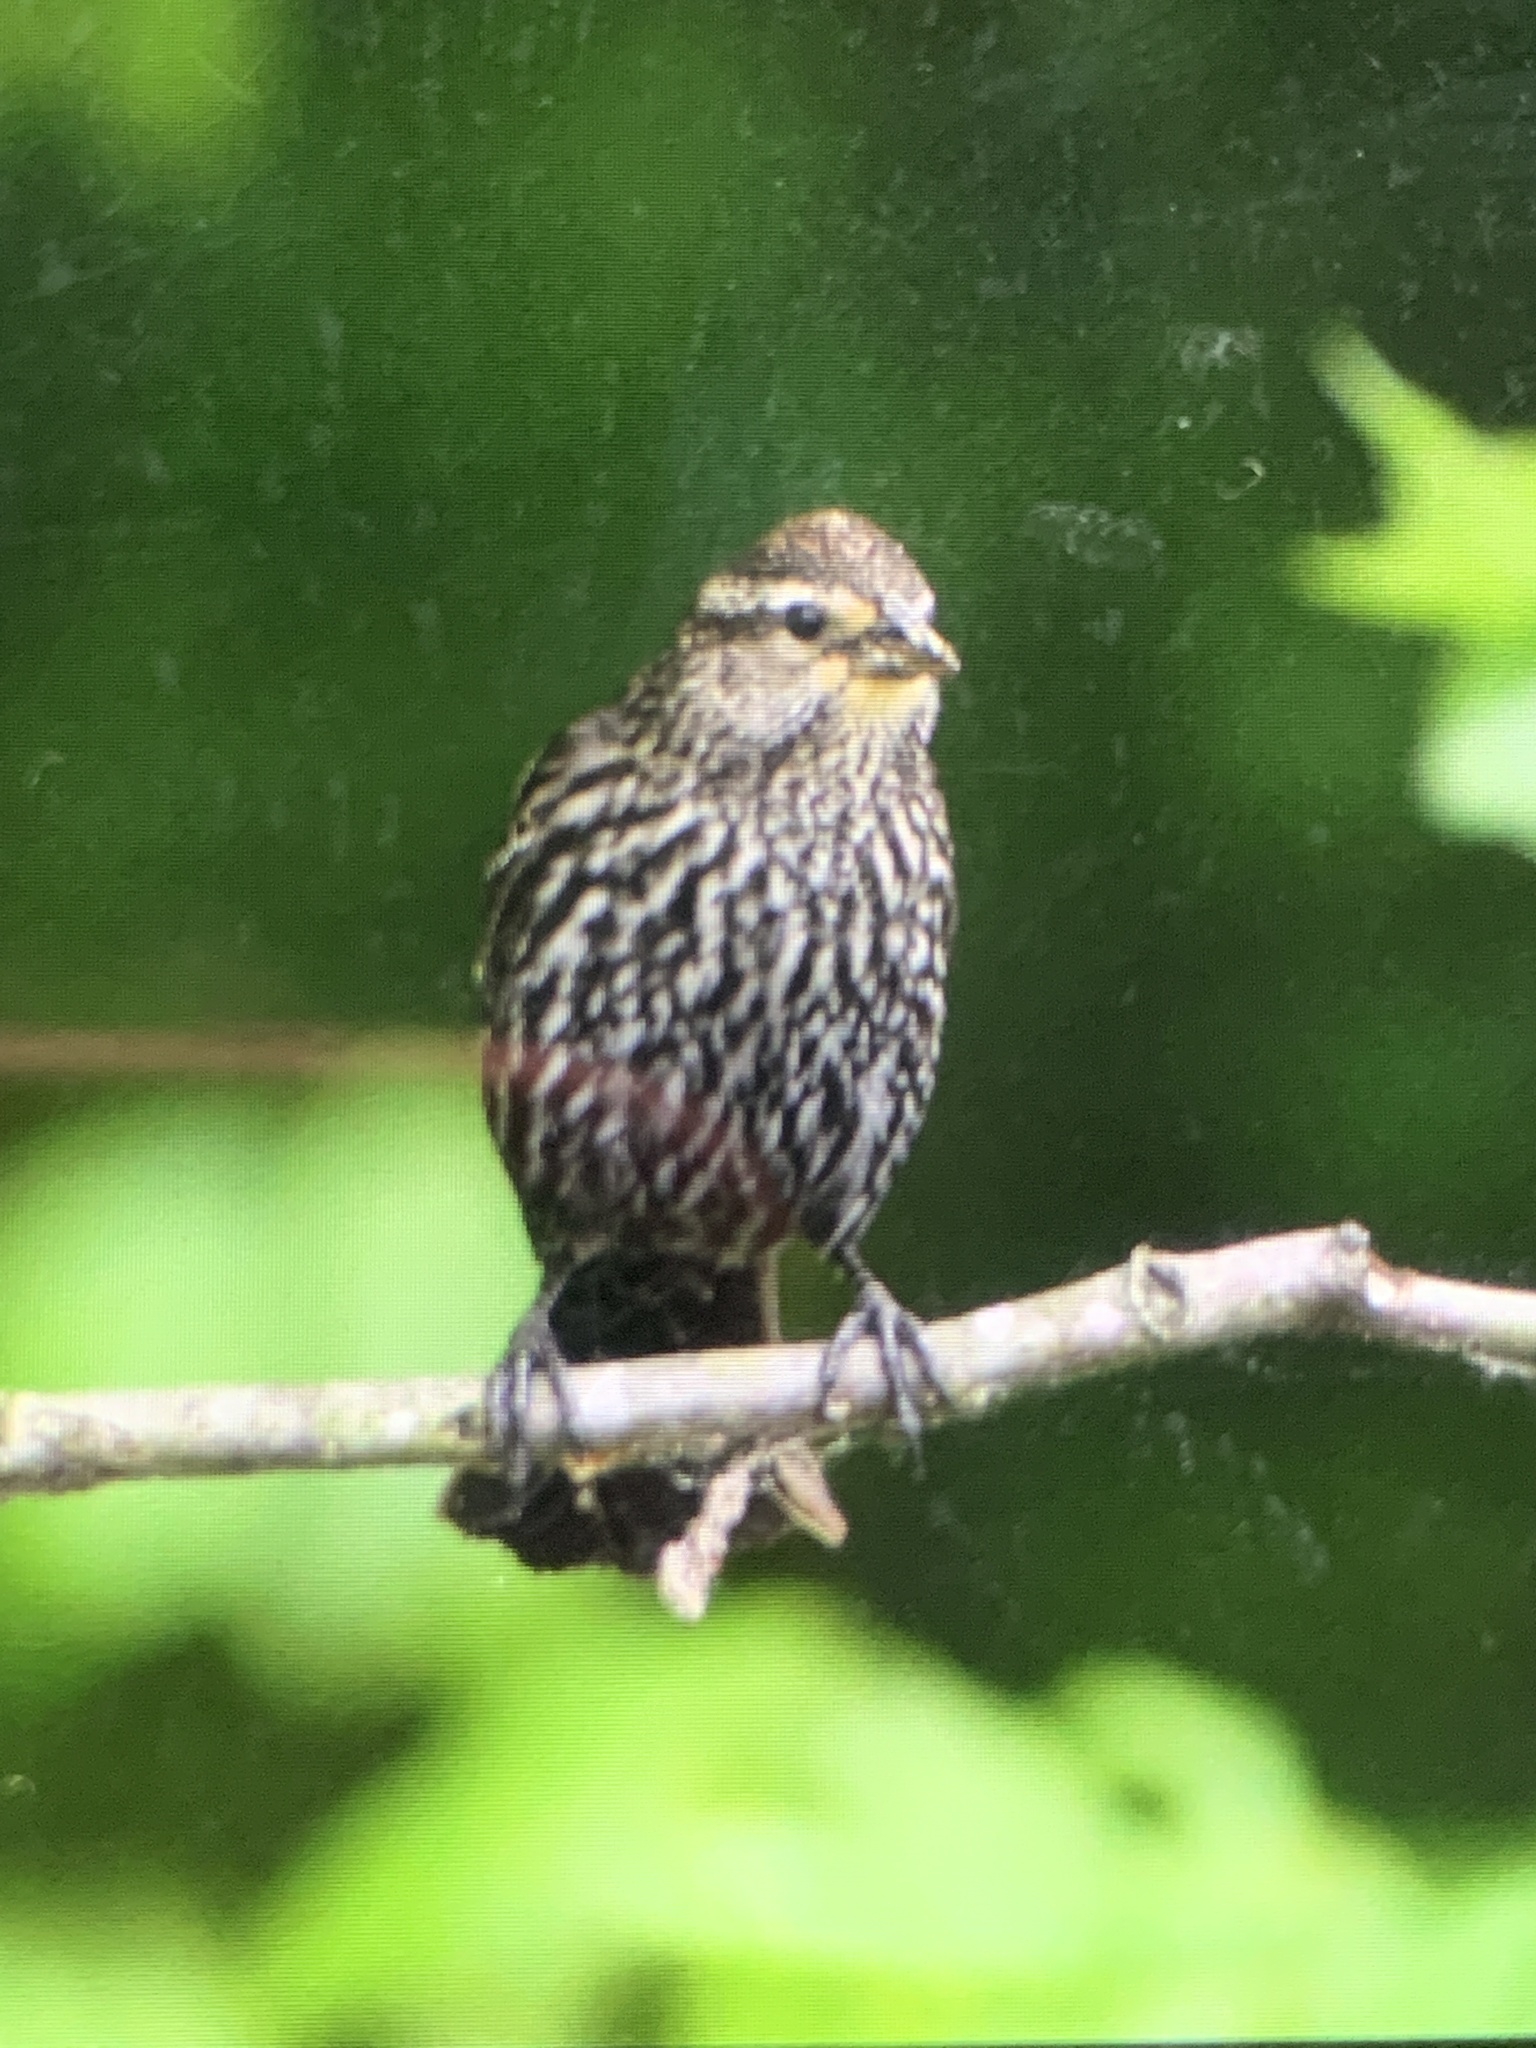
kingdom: Animalia
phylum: Chordata
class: Aves
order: Passeriformes
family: Icteridae
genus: Agelaius
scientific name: Agelaius phoeniceus
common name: Red-winged blackbird
